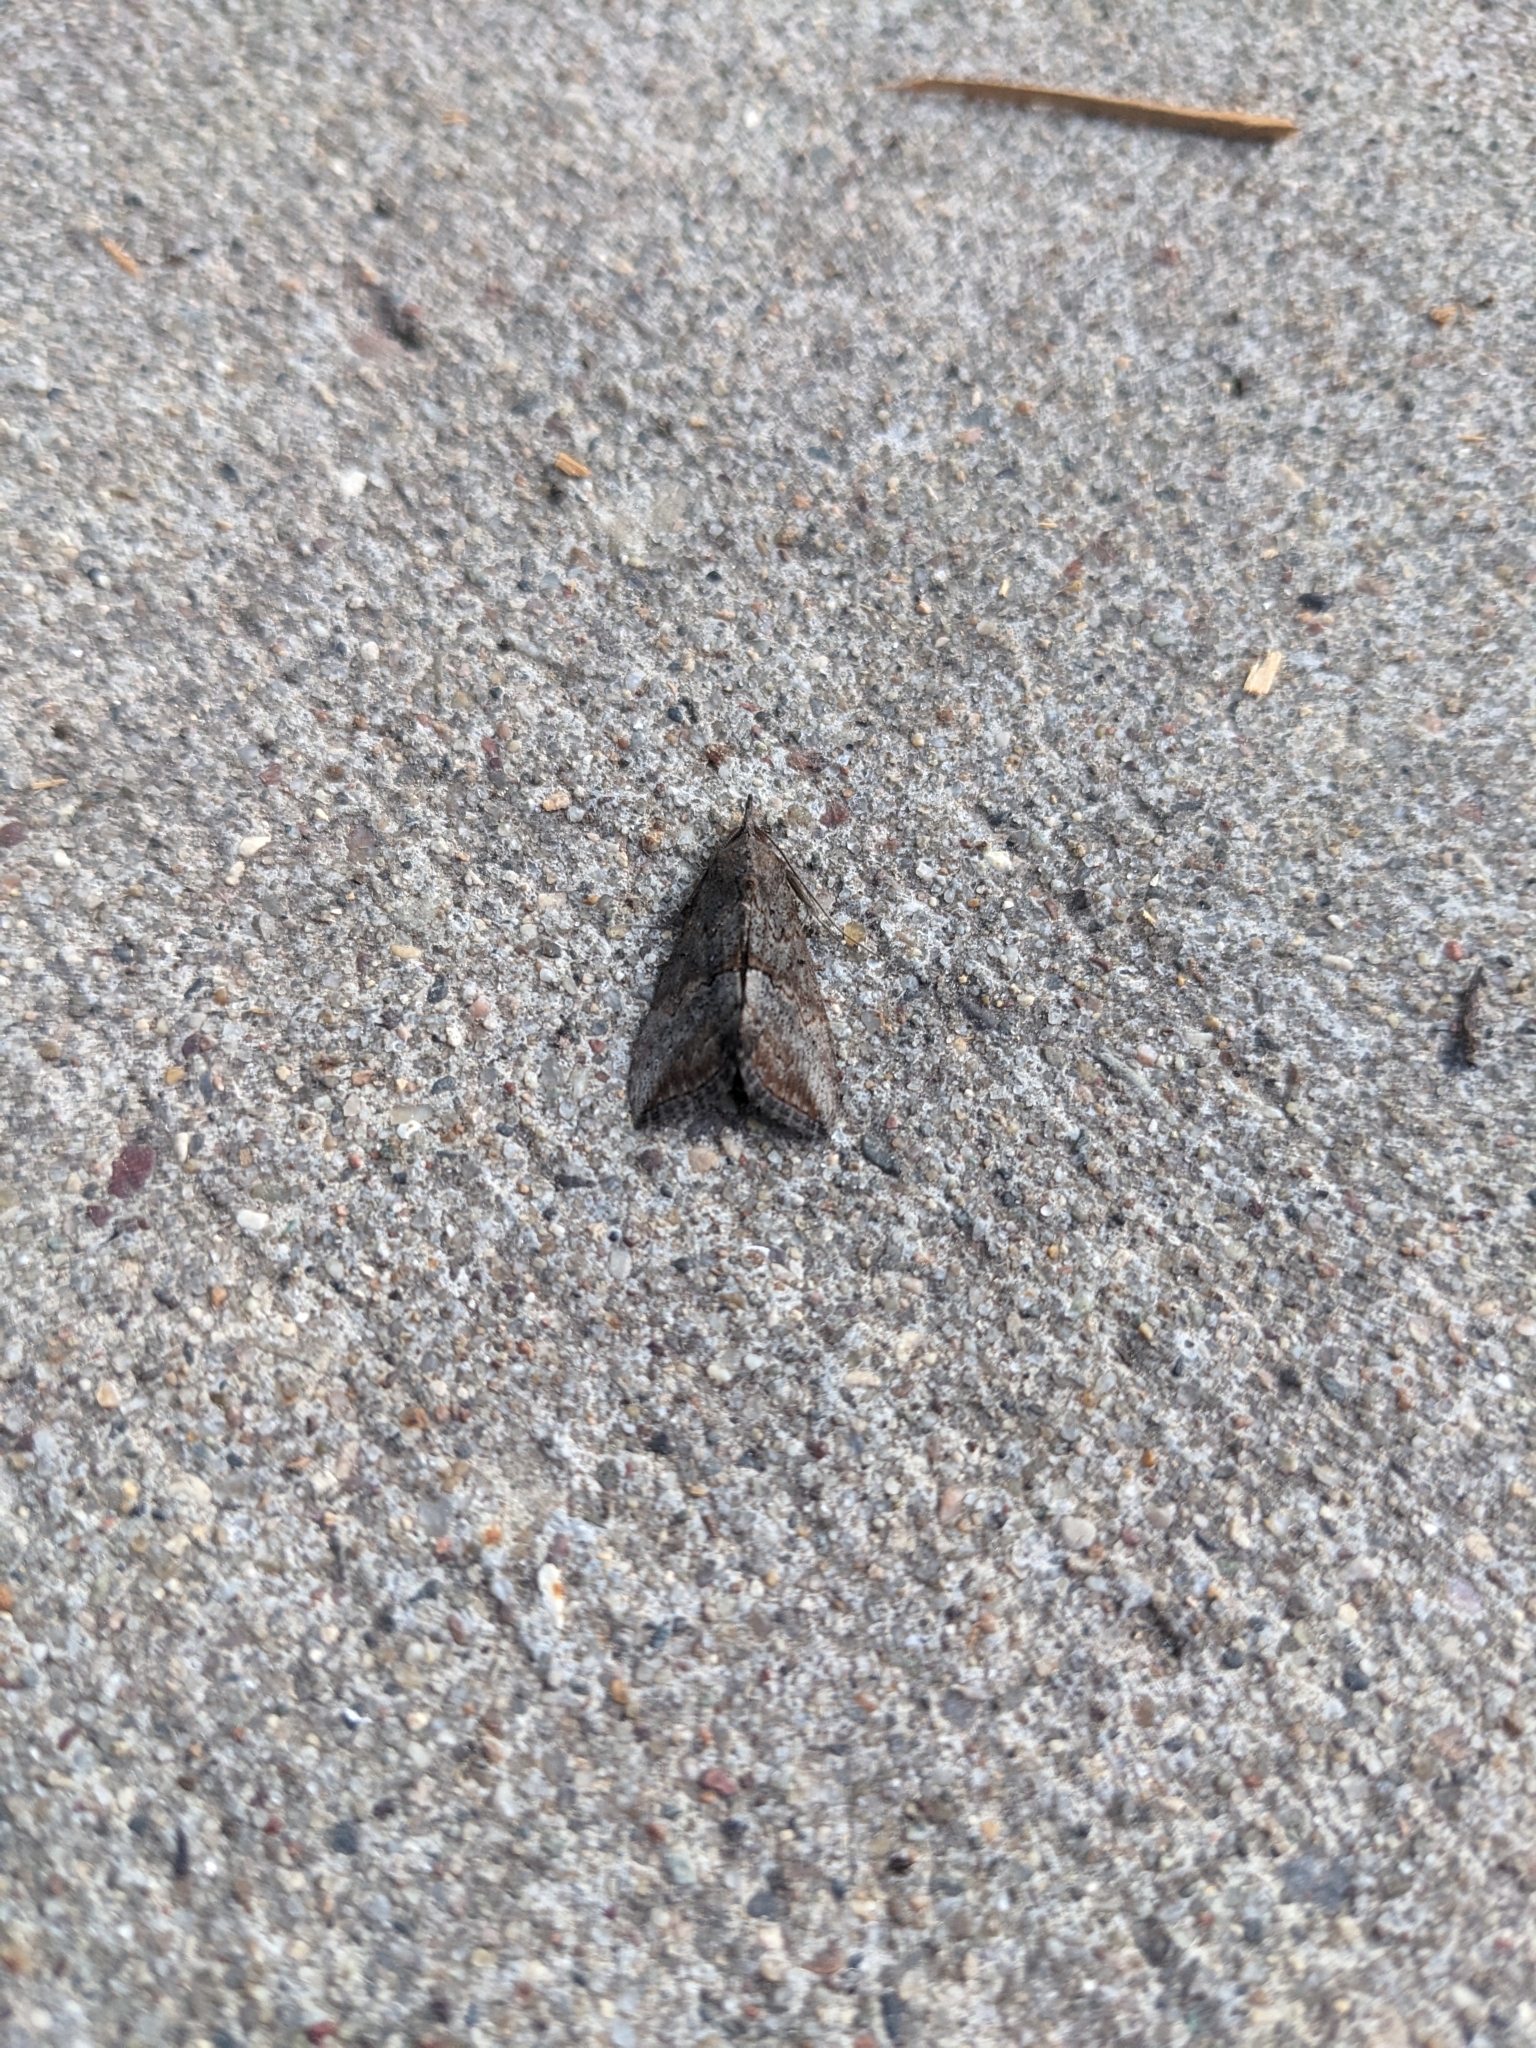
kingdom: Animalia
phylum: Arthropoda
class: Insecta
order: Lepidoptera
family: Erebidae
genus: Hypena
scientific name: Hypena scabra
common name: Green cloverworm
